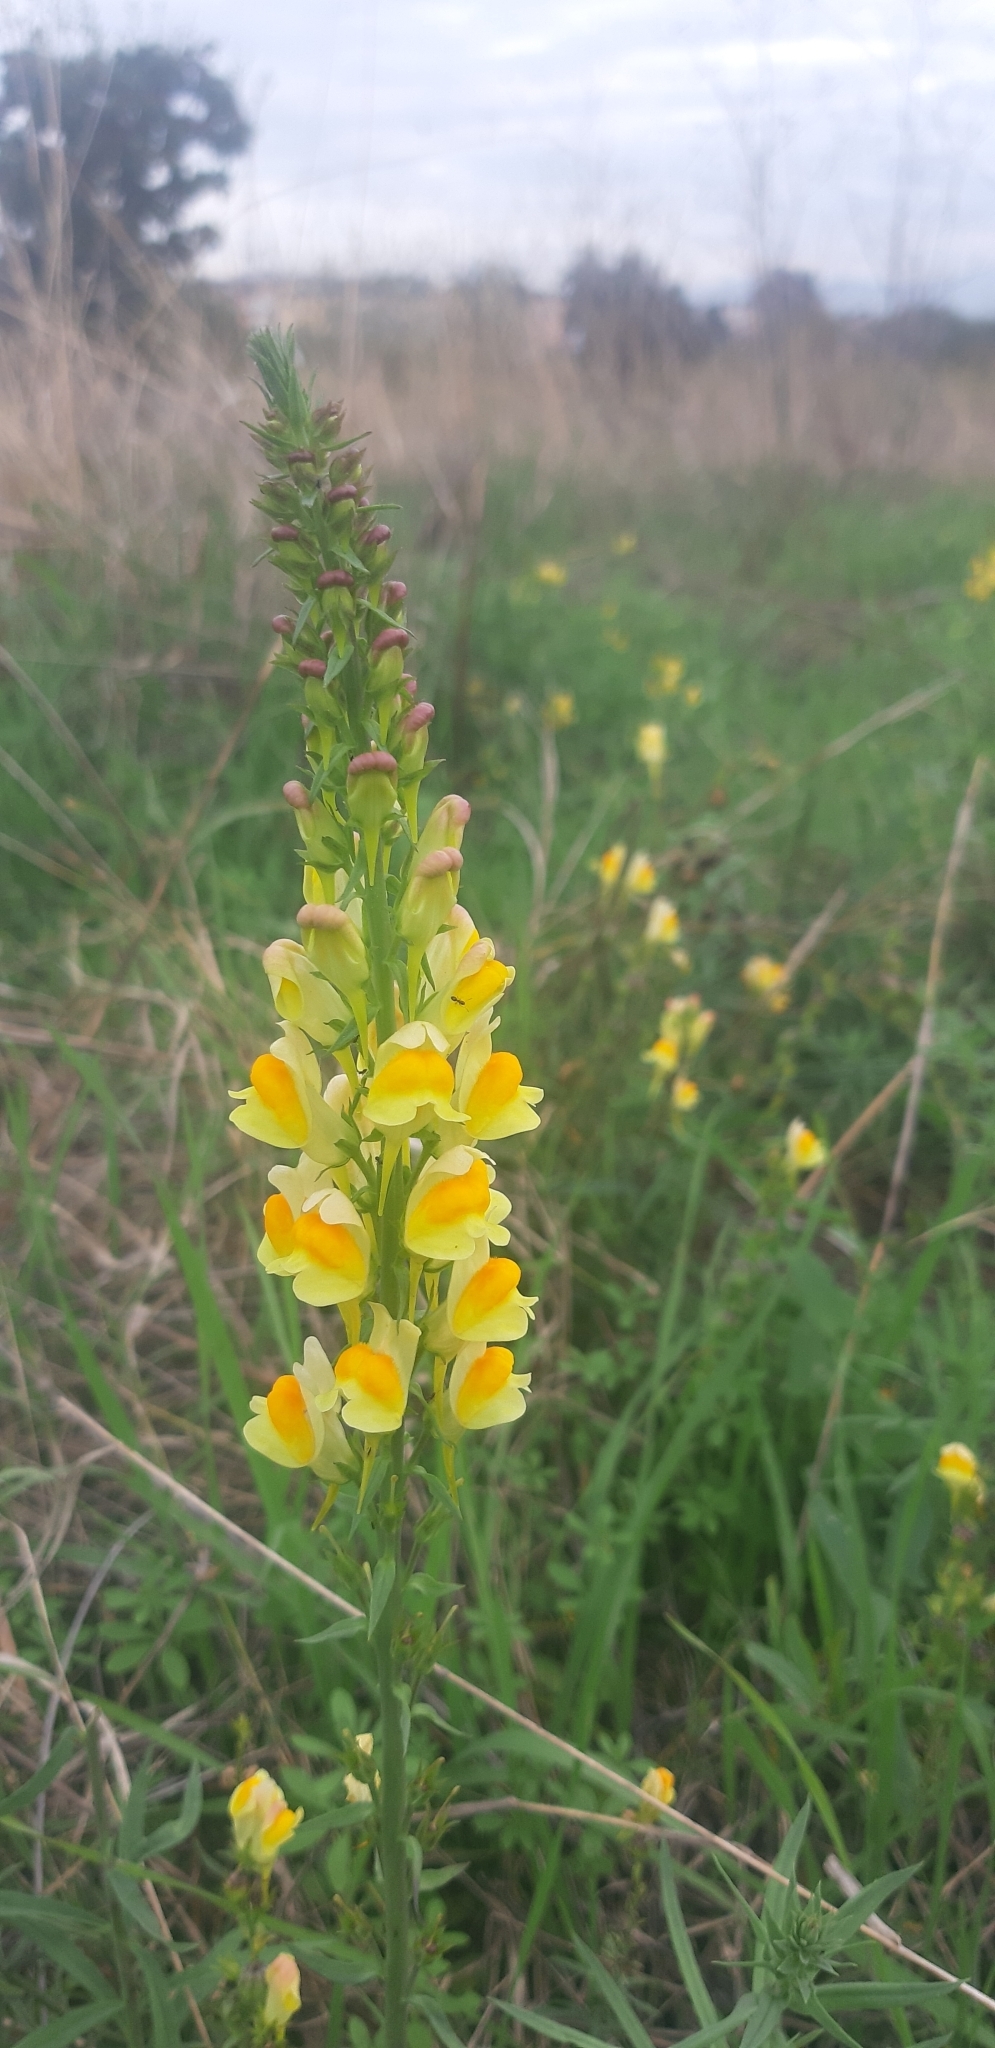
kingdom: Plantae
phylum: Tracheophyta
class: Magnoliopsida
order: Lamiales
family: Plantaginaceae
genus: Linaria
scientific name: Linaria vulgaris
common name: Butter and eggs
